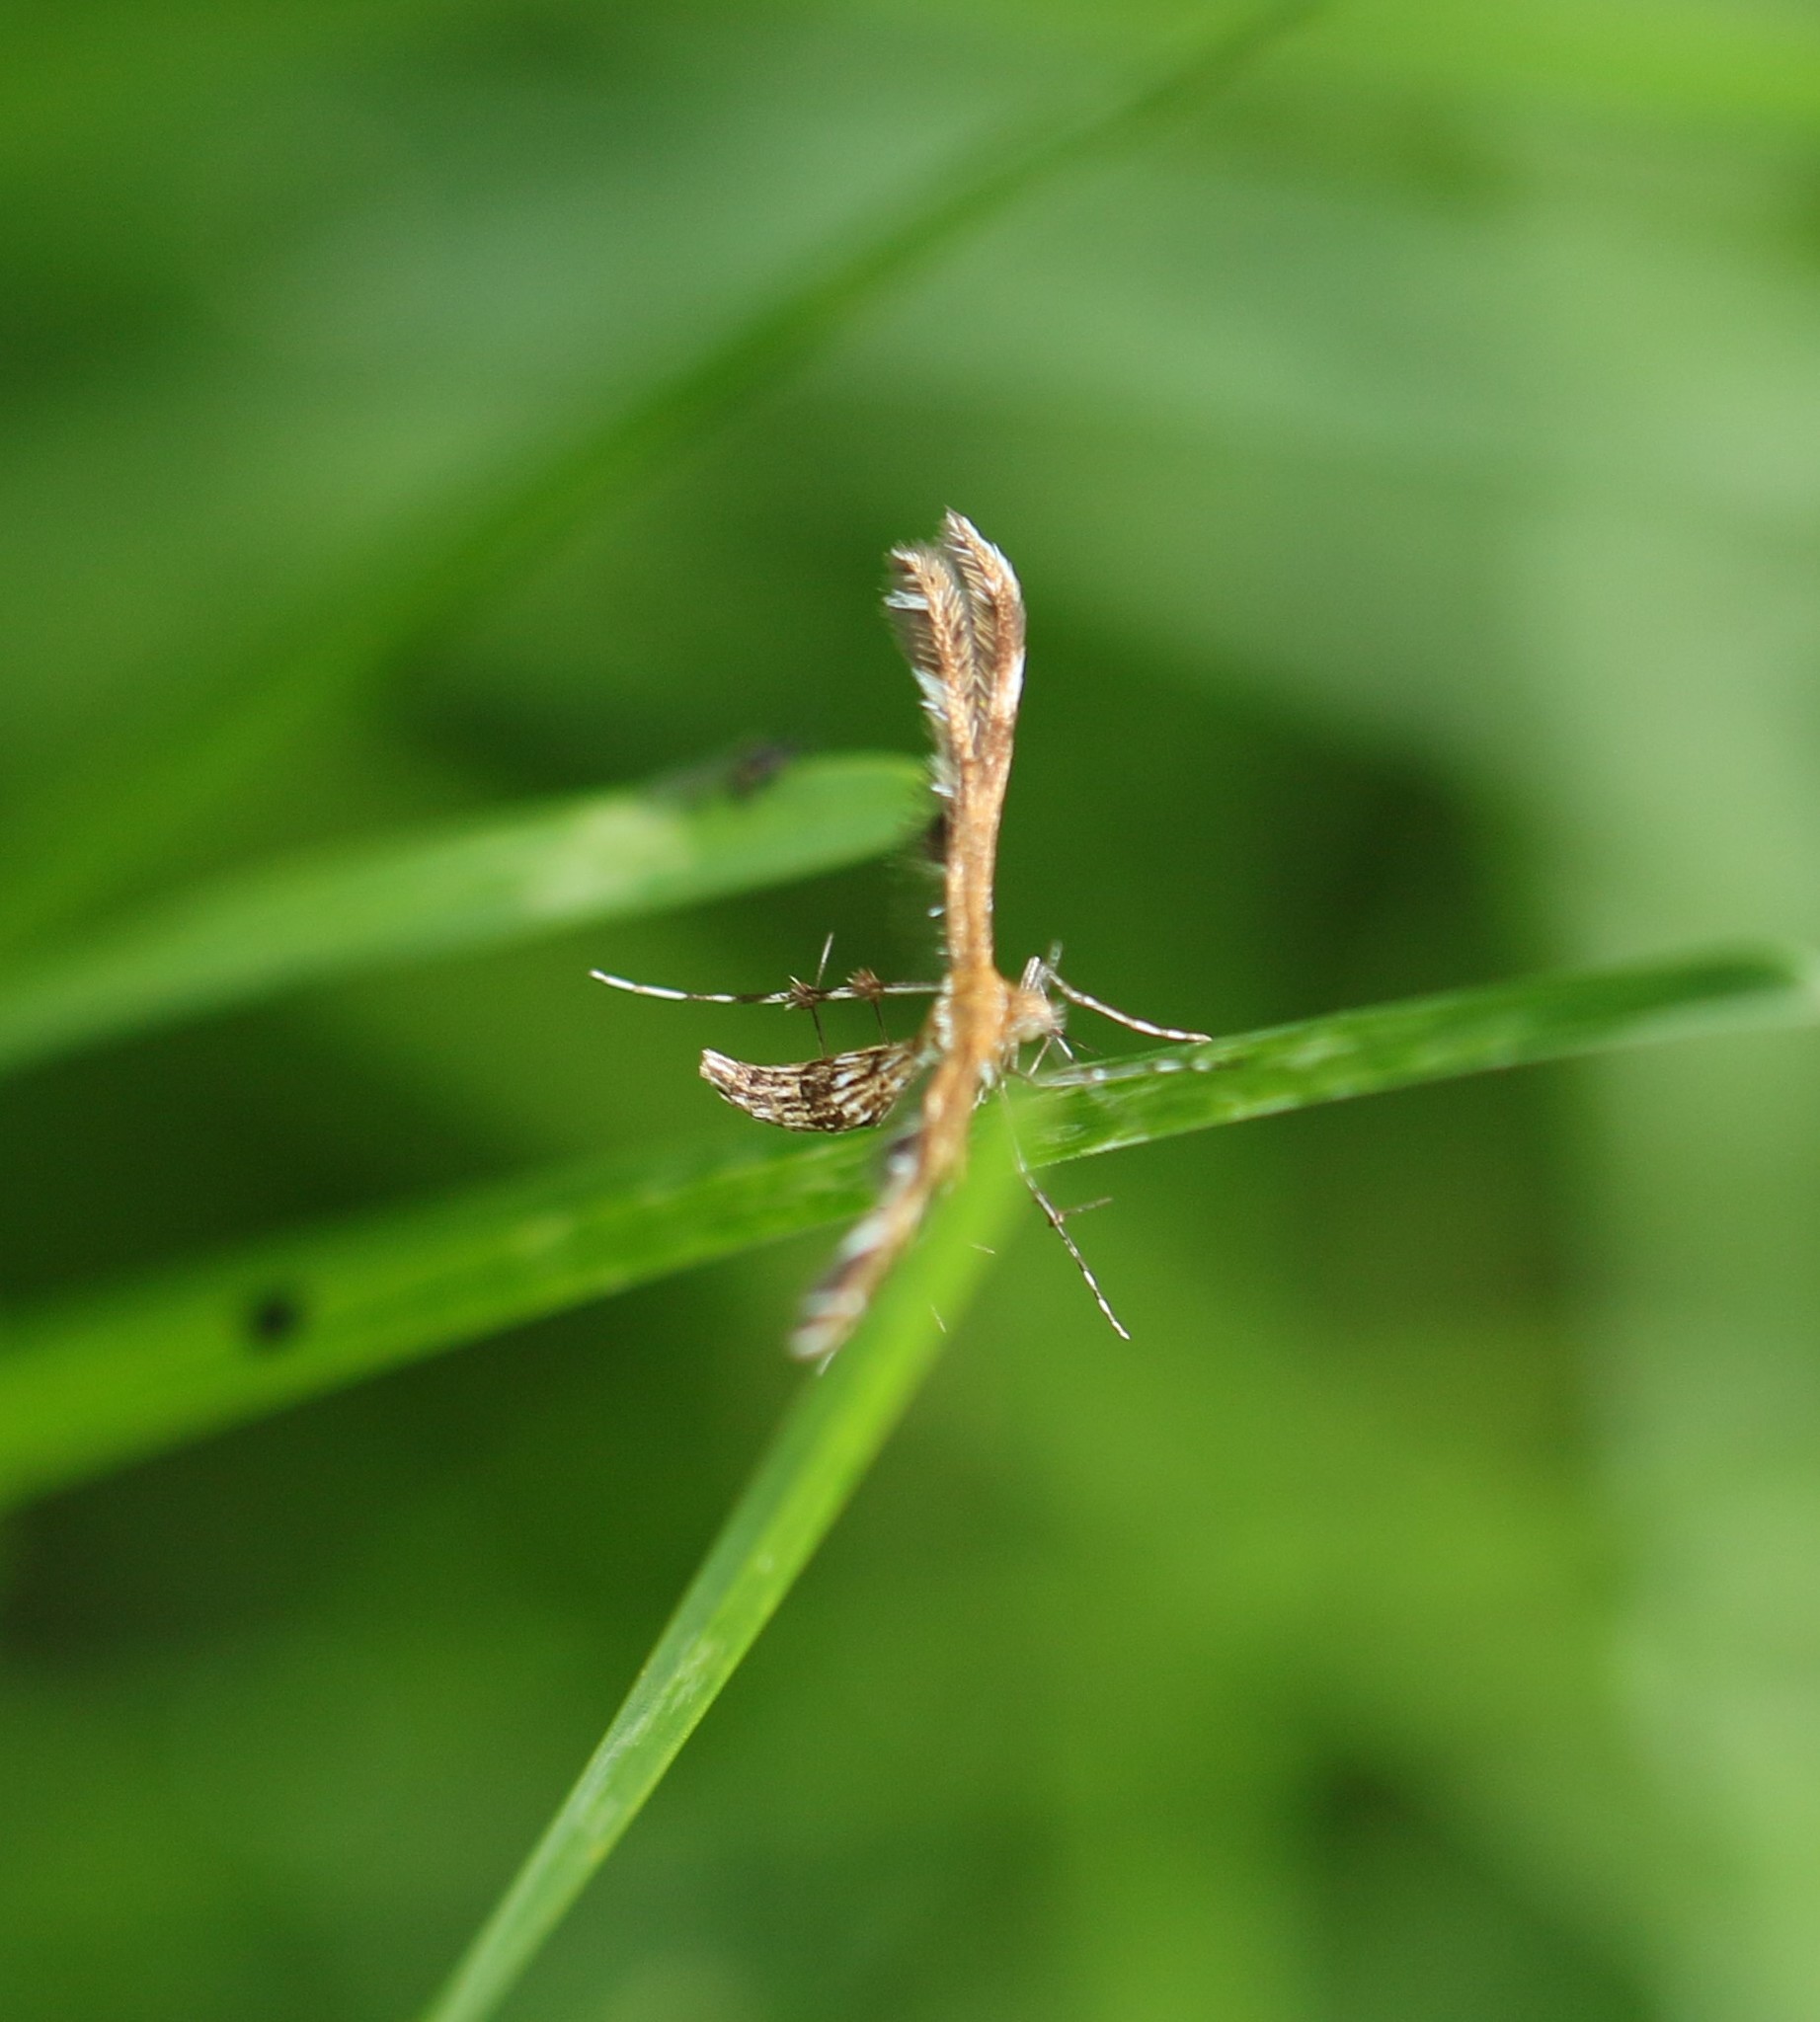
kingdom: Animalia
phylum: Arthropoda
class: Insecta
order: Lepidoptera
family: Pterophoridae
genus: Dejongia
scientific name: Dejongia lobidactylus
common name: Lobed plume moth
